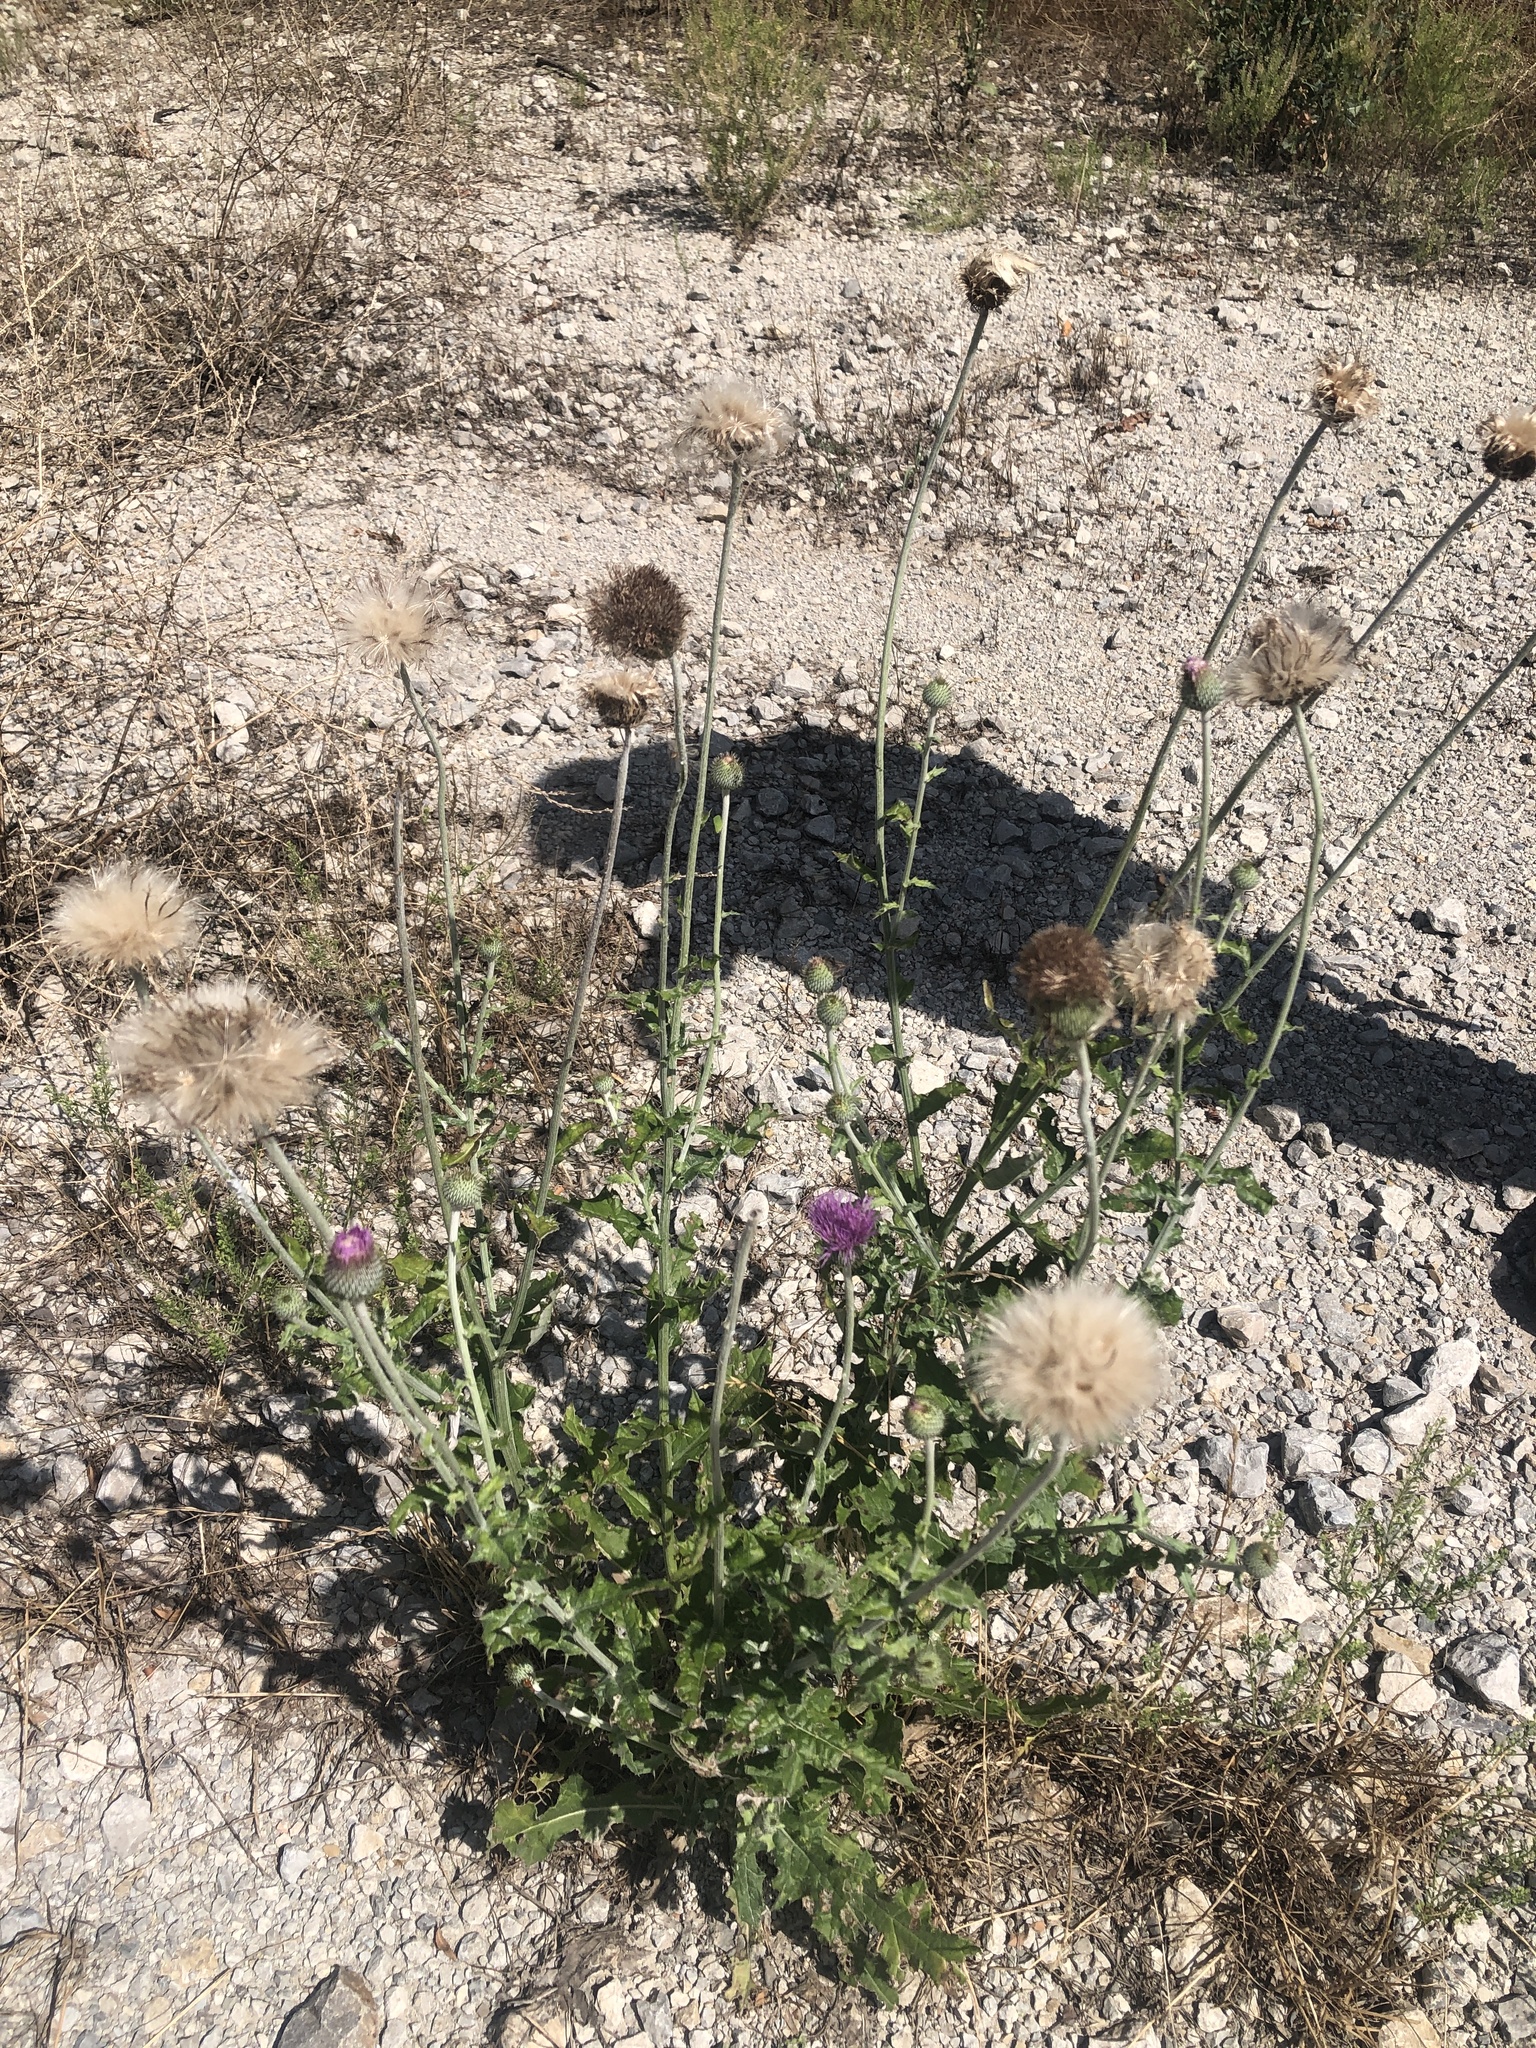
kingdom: Plantae
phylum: Tracheophyta
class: Magnoliopsida
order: Asterales
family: Asteraceae
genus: Cirsium
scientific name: Cirsium texanum
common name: Texas purple thistle
